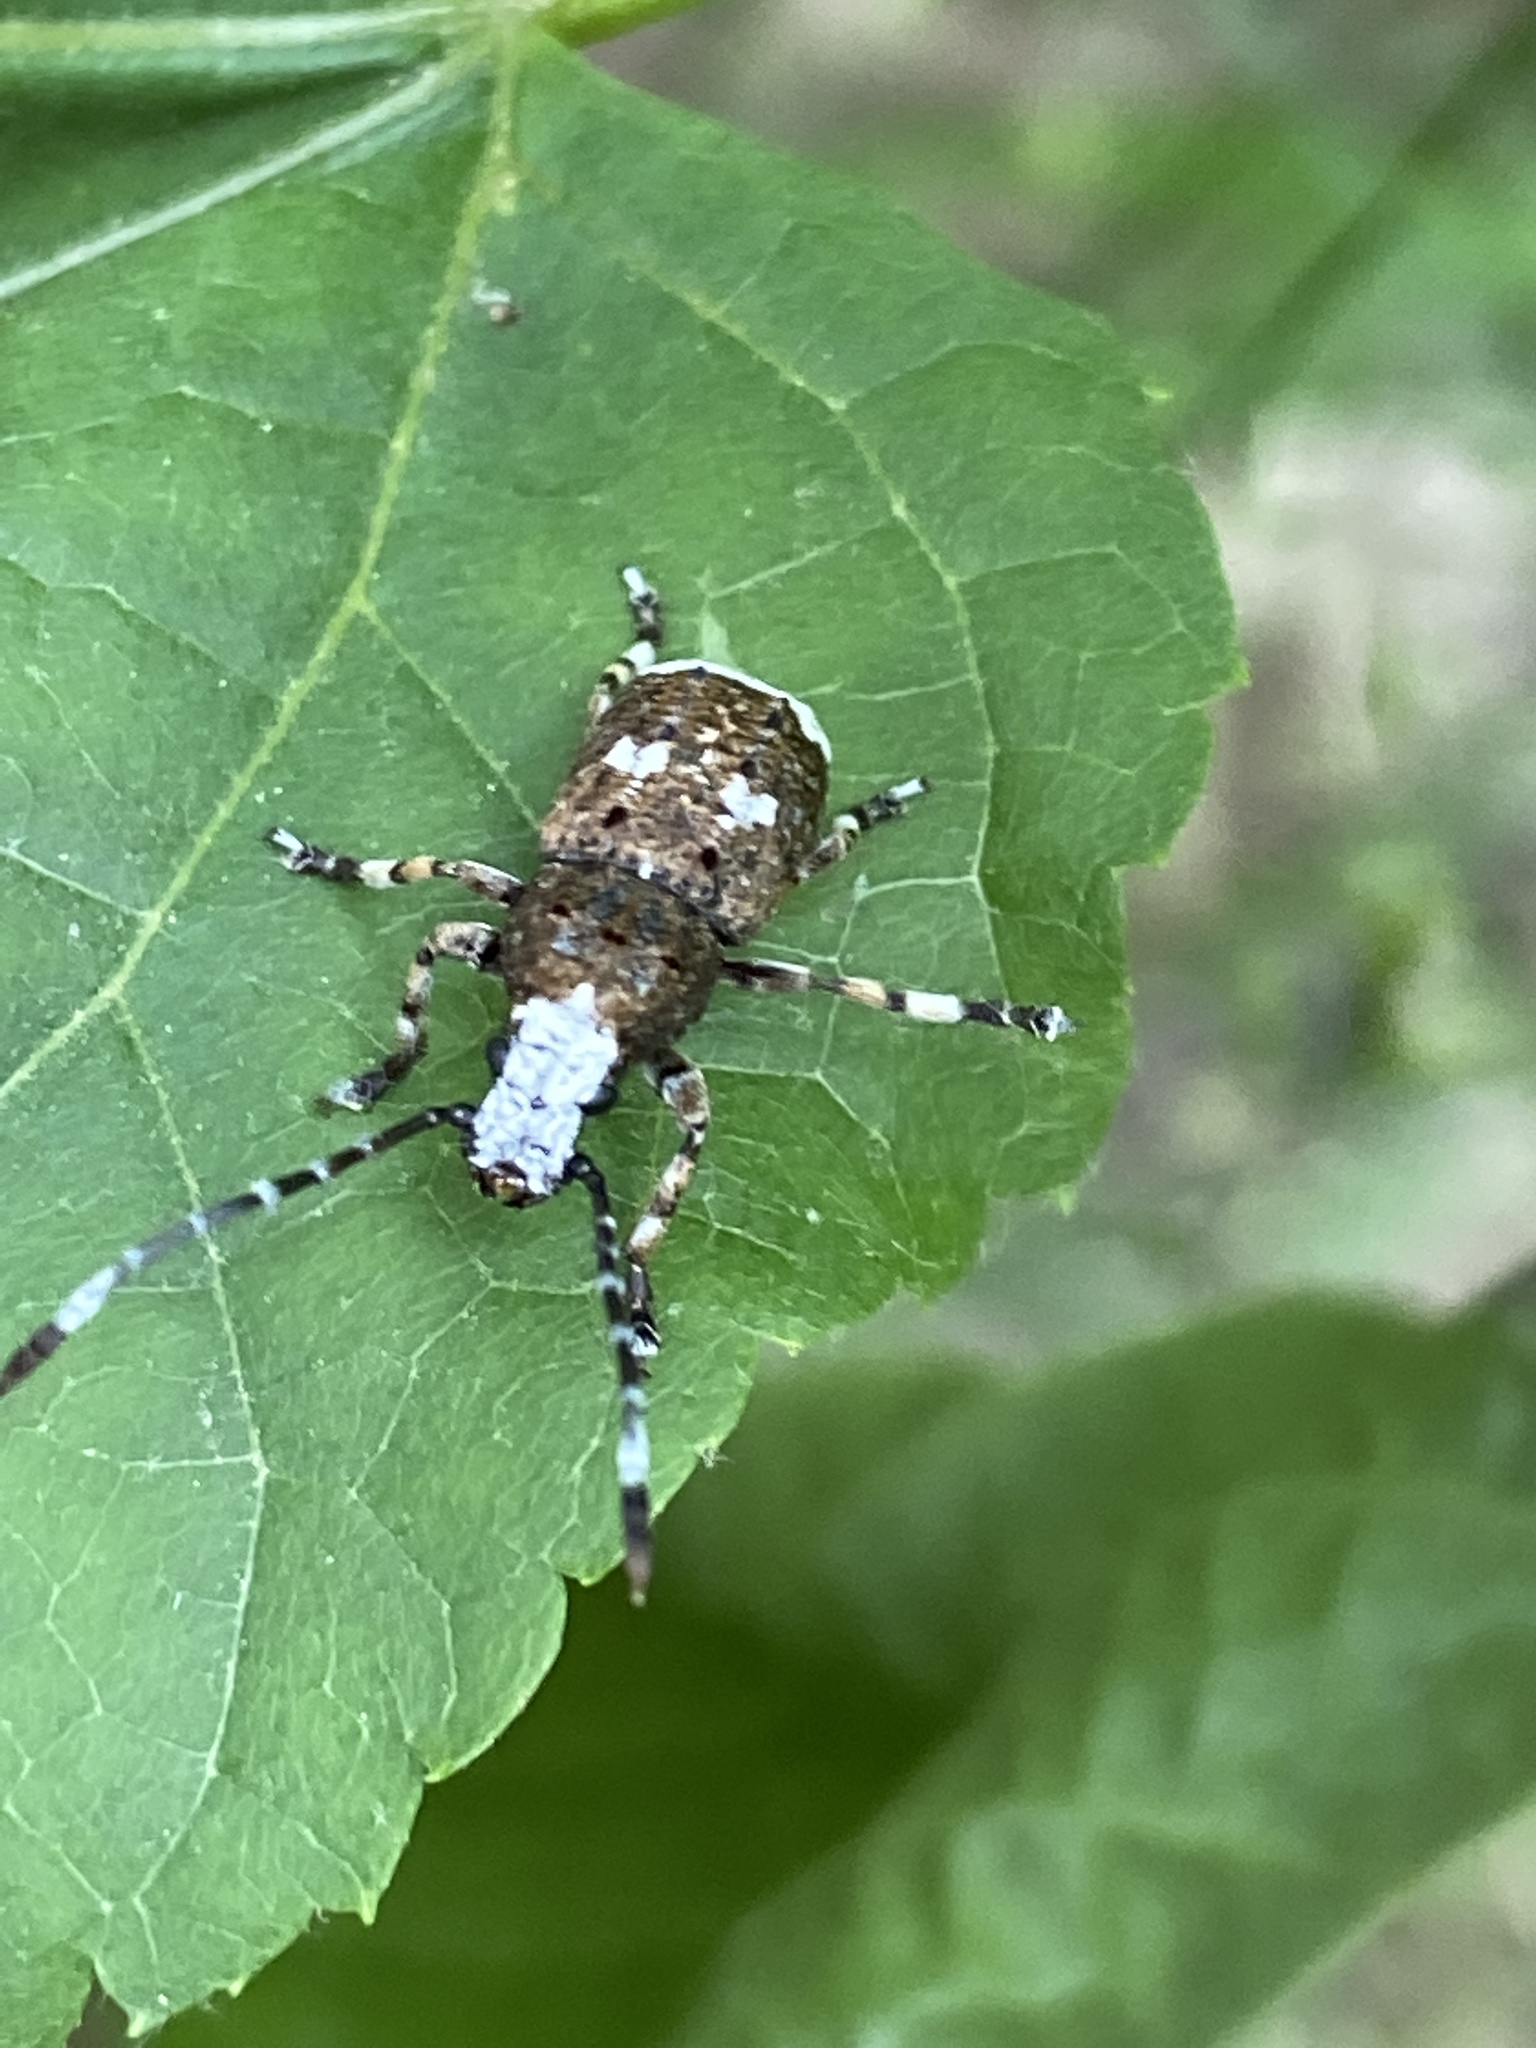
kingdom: Animalia
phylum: Arthropoda
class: Insecta
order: Coleoptera
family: Anthribidae
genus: Platystomos
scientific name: Platystomos albinus
